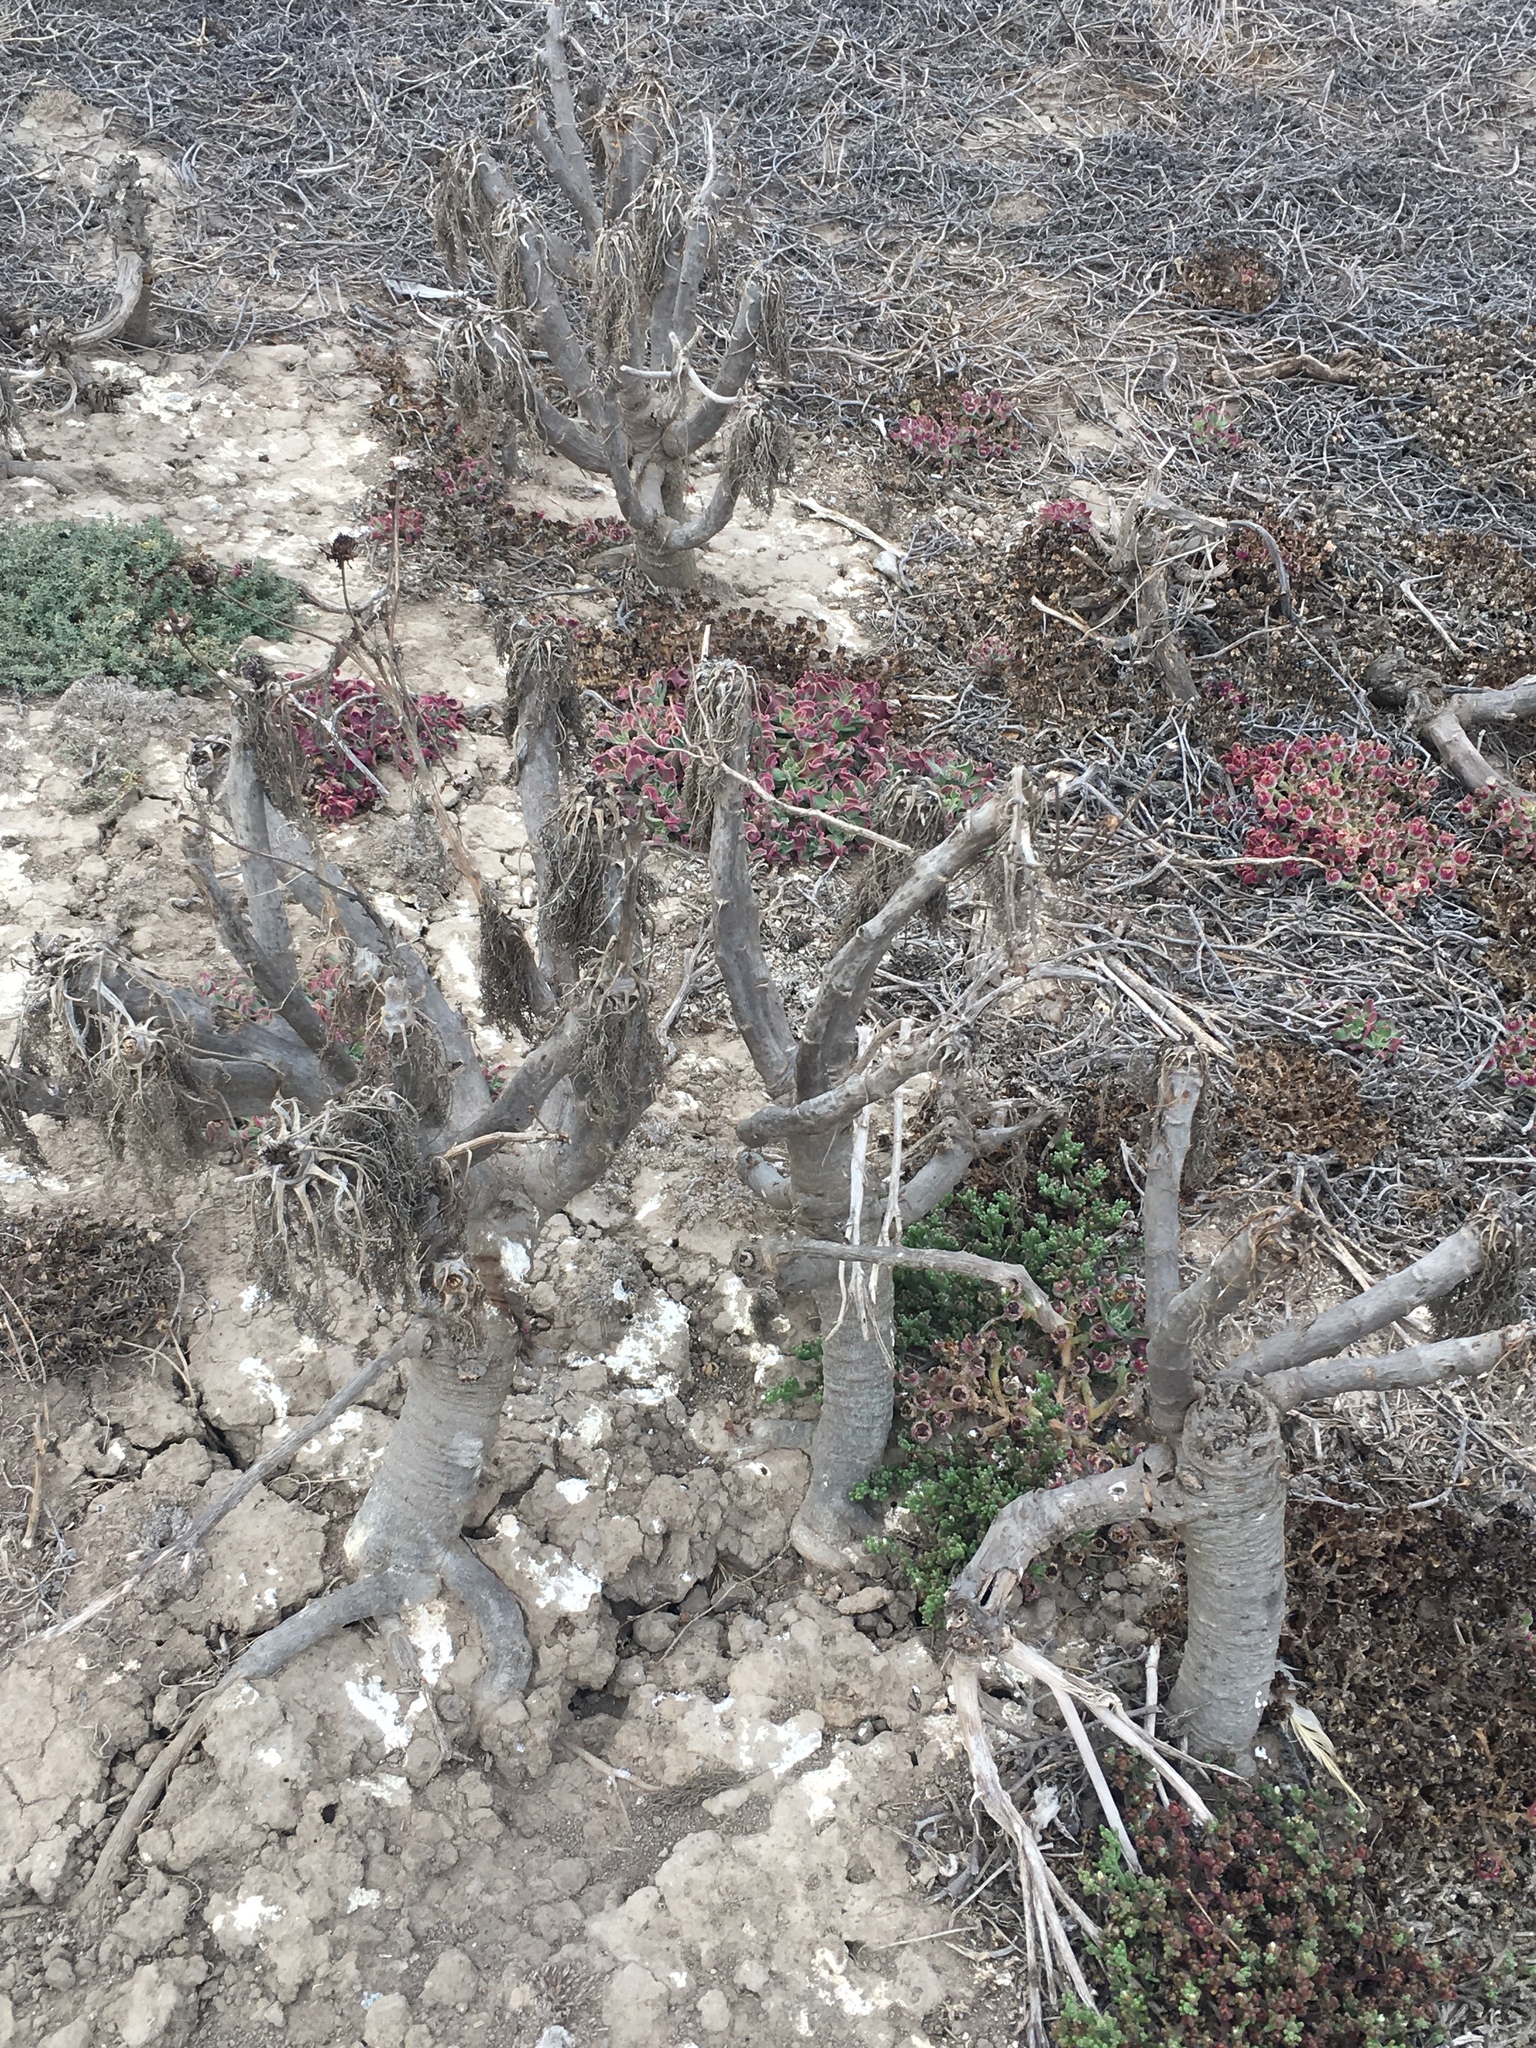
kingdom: Plantae
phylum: Tracheophyta
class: Magnoliopsida
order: Asterales
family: Asteraceae
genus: Coreopsis
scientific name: Coreopsis gigantea
